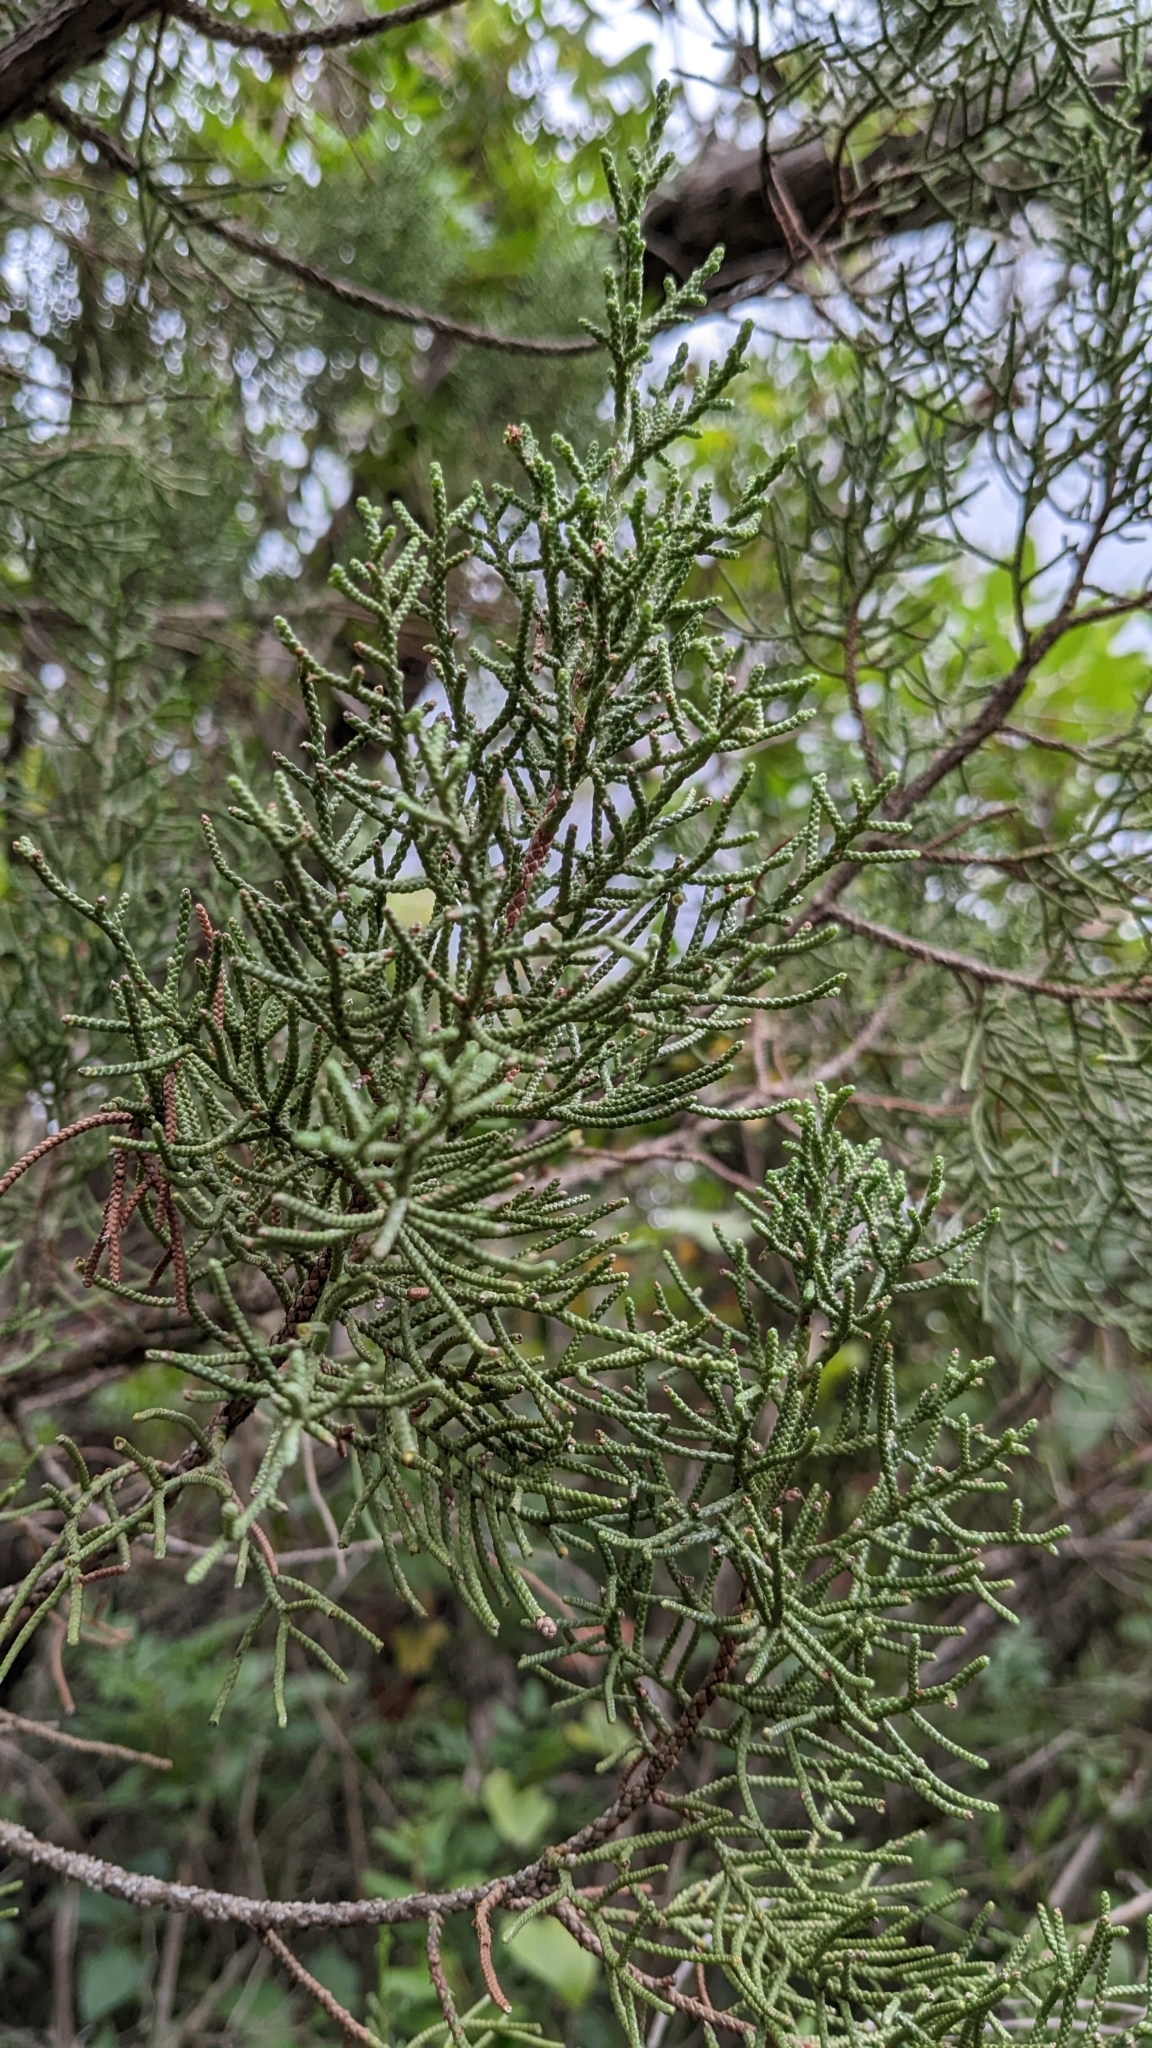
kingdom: Plantae
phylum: Tracheophyta
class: Pinopsida
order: Pinales
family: Cupressaceae
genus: Juniperus
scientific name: Juniperus phoenicea
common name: Phoenician juniper
